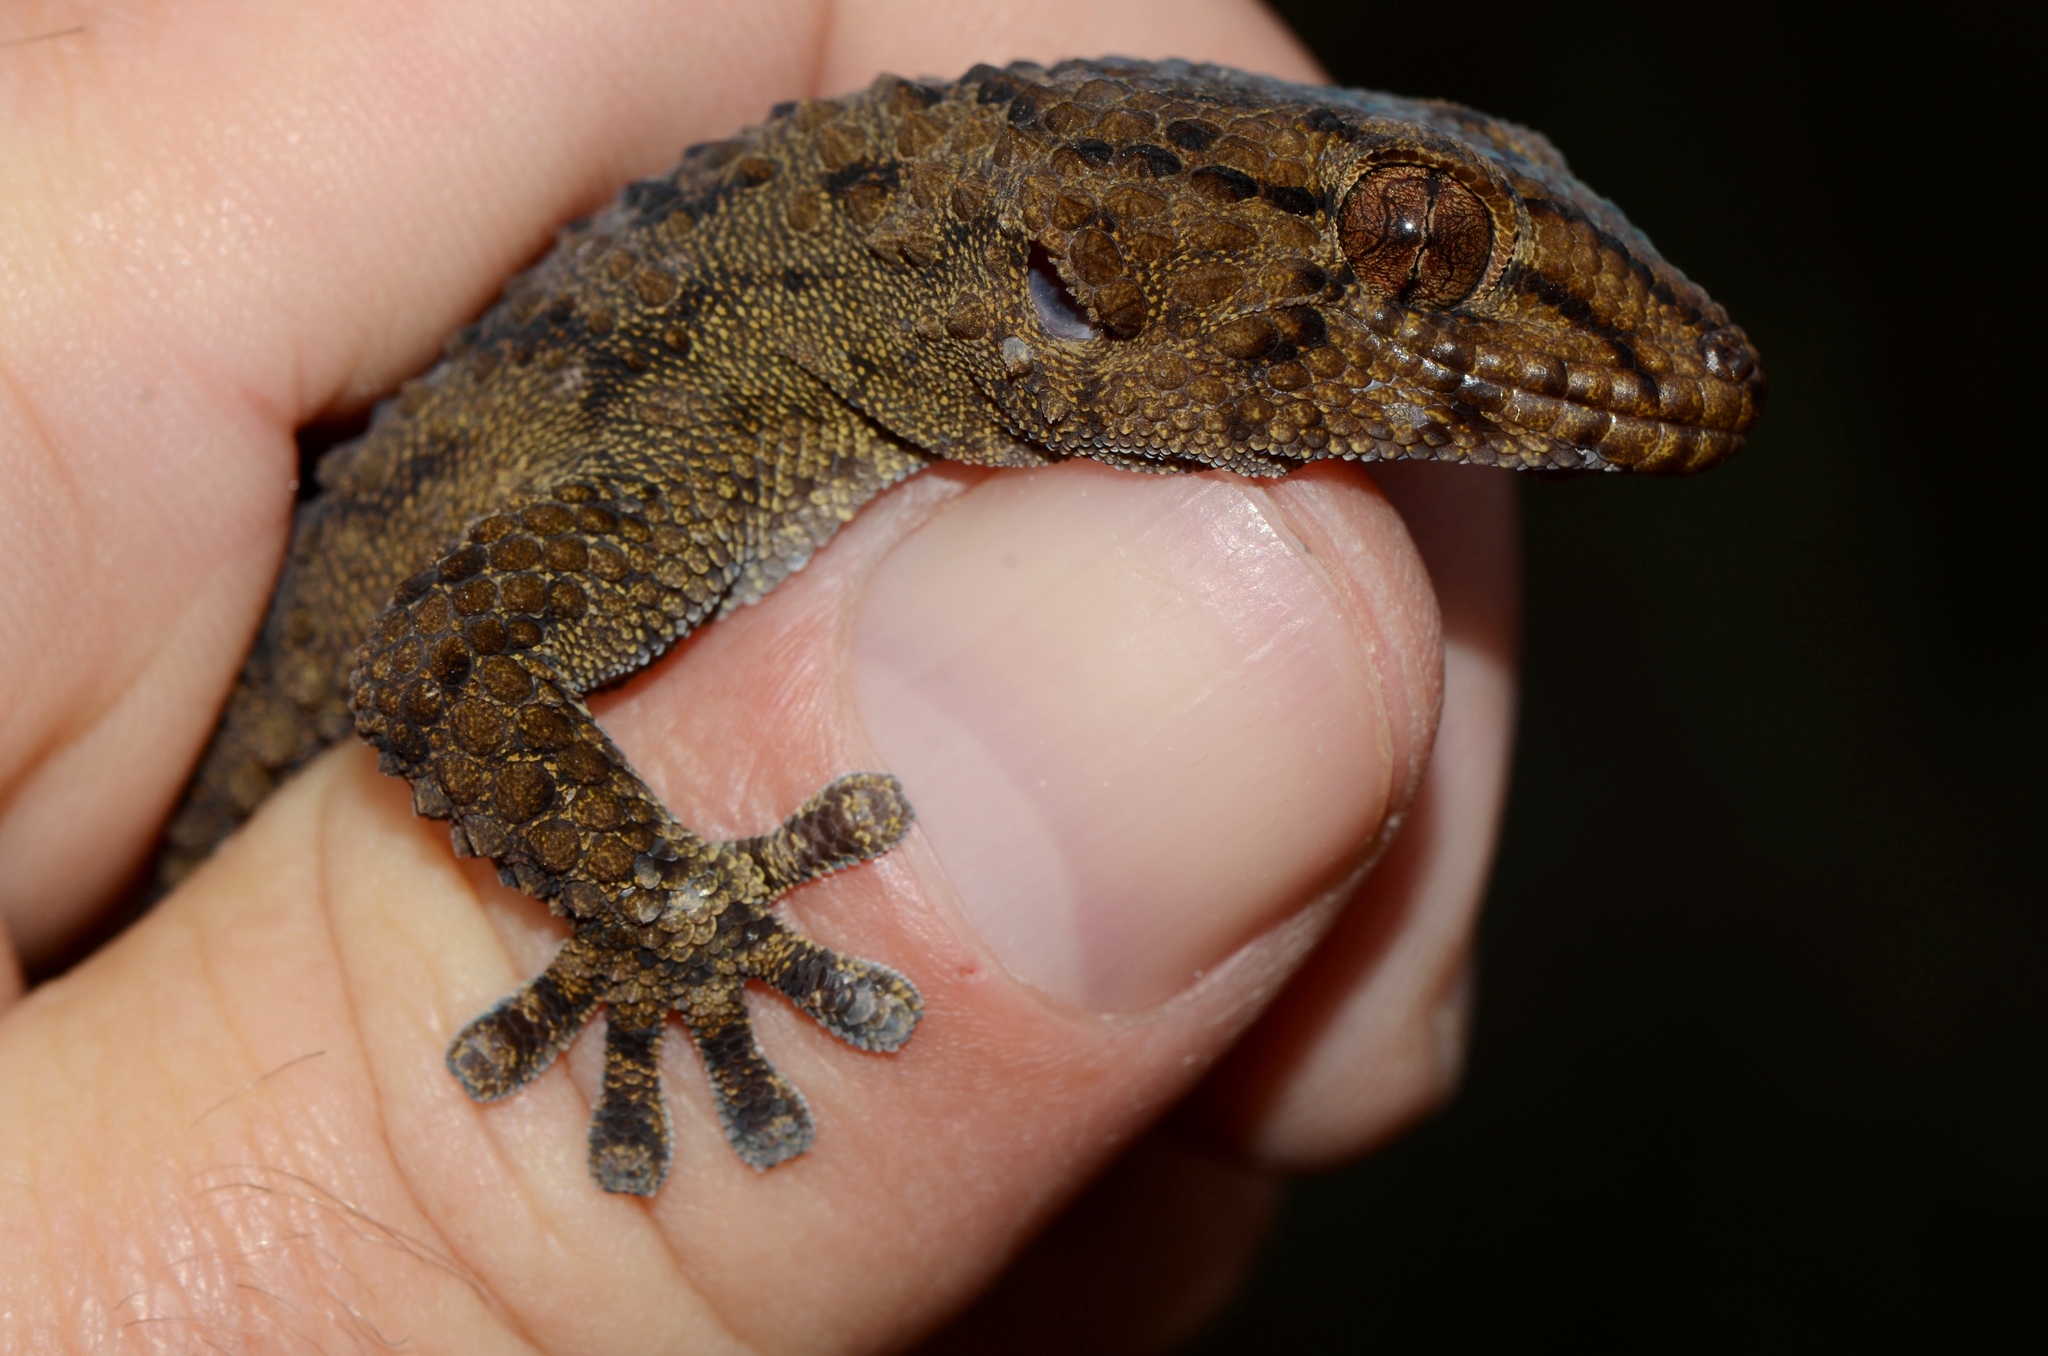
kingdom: Animalia
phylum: Chordata
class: Squamata
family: Gekkonidae
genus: Chondrodactylus
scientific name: Chondrodactylus bibronii
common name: Bibron's gecko
